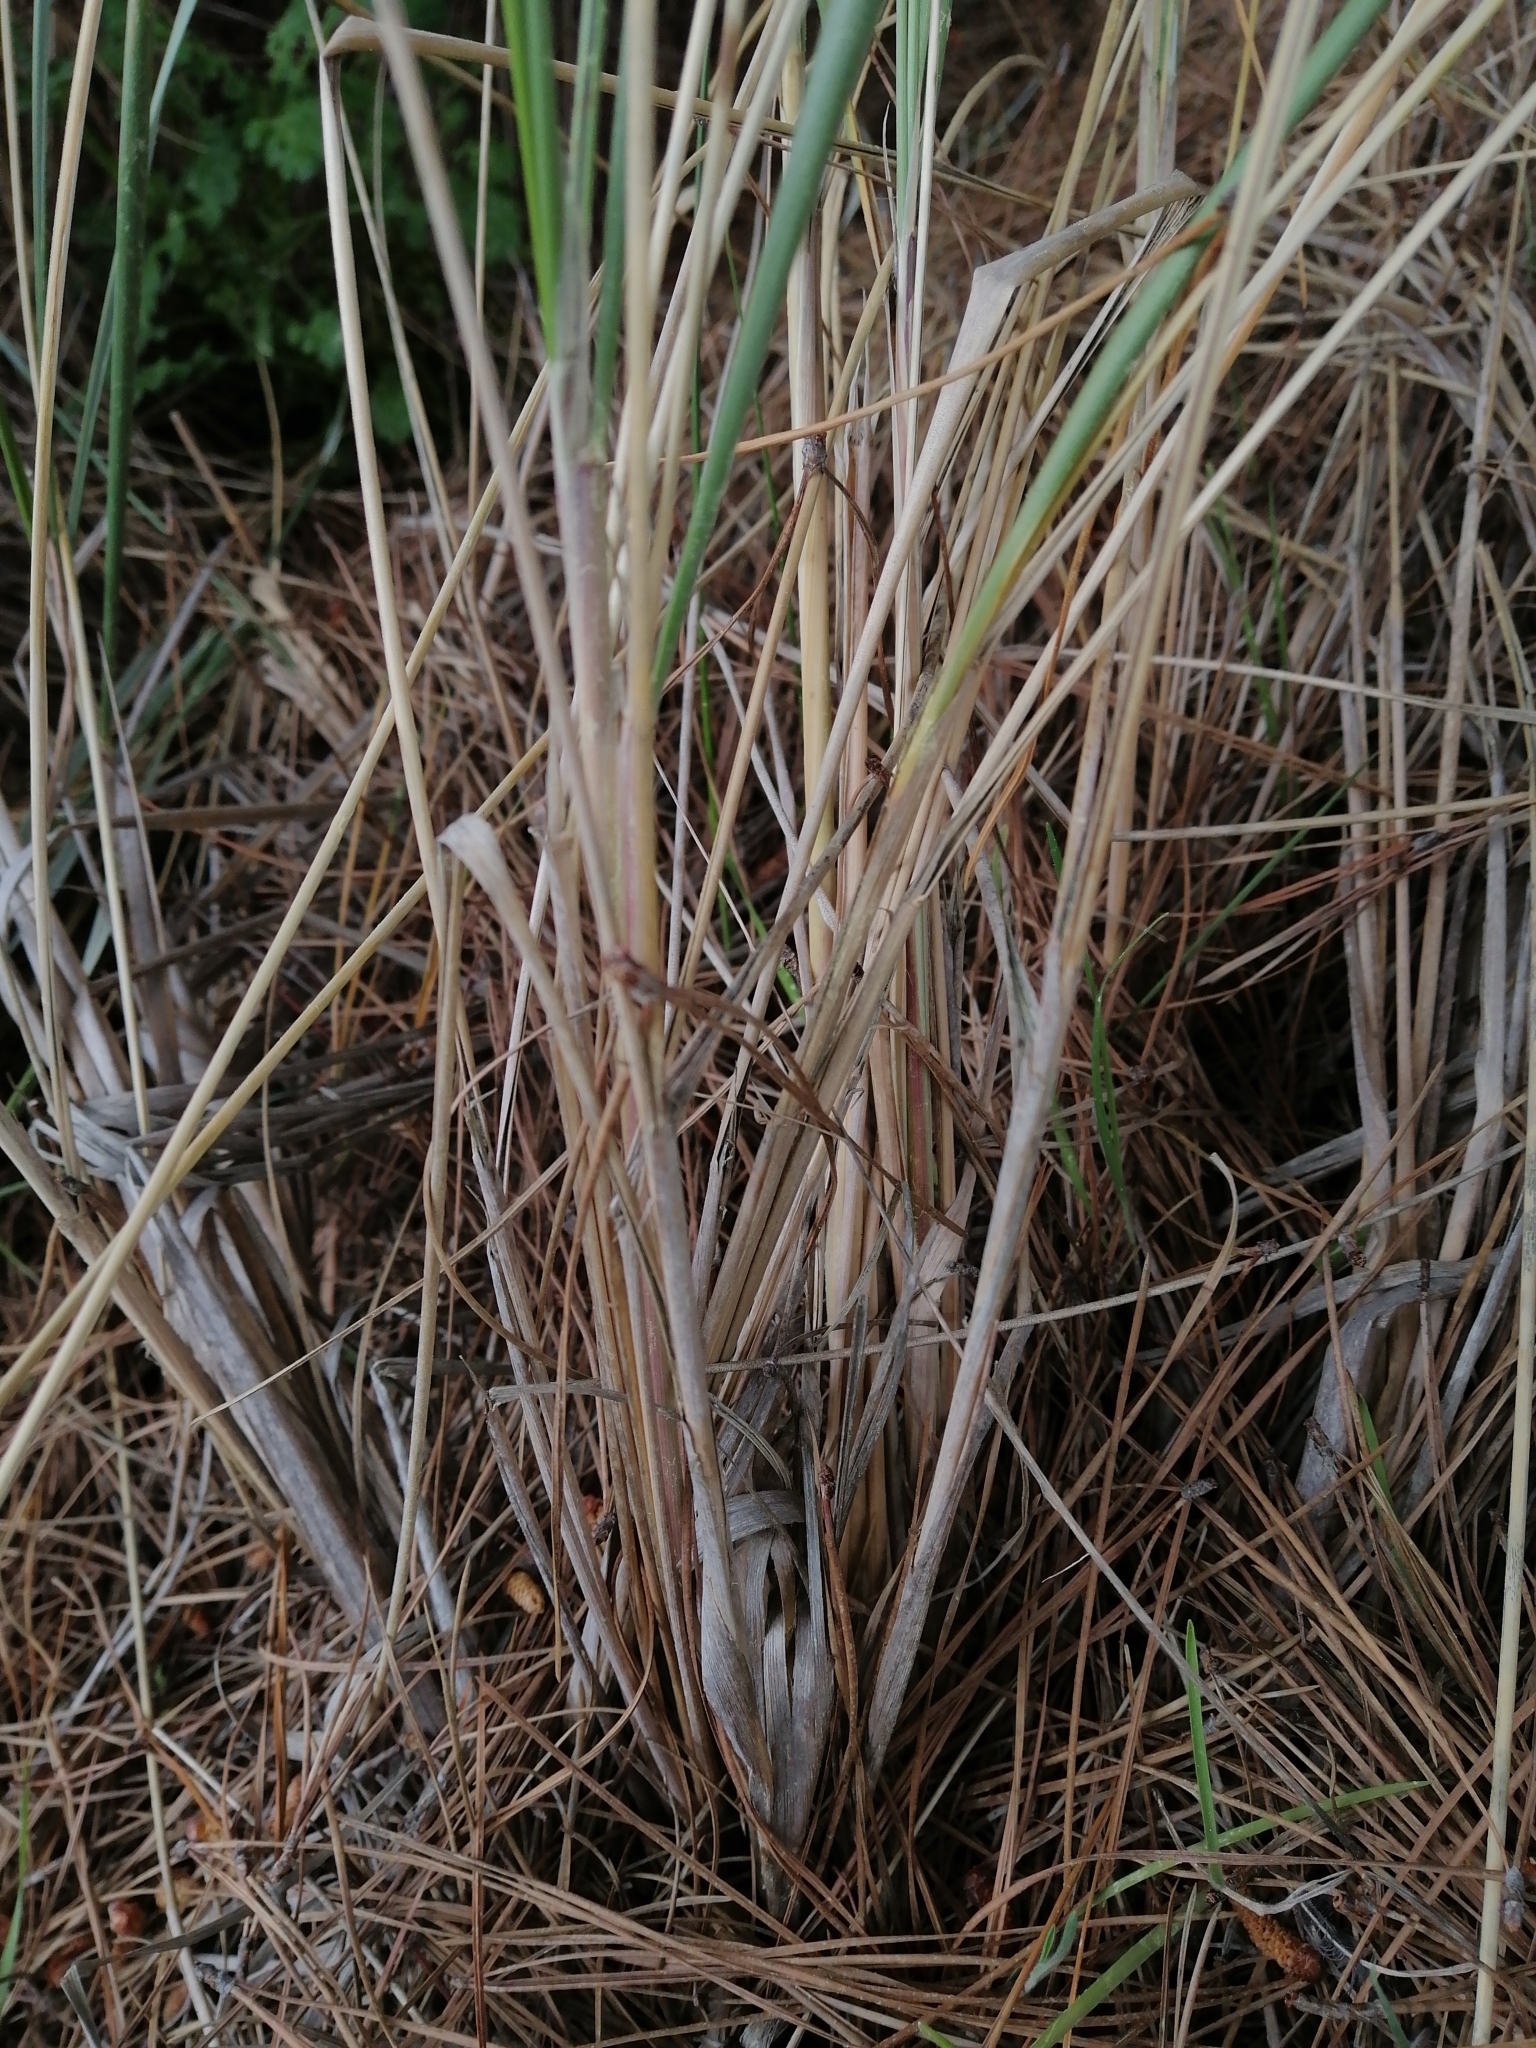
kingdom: Plantae
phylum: Tracheophyta
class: Liliopsida
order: Poales
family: Poaceae
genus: Calamagrostis
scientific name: Calamagrostis arenaria
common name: European beachgrass
